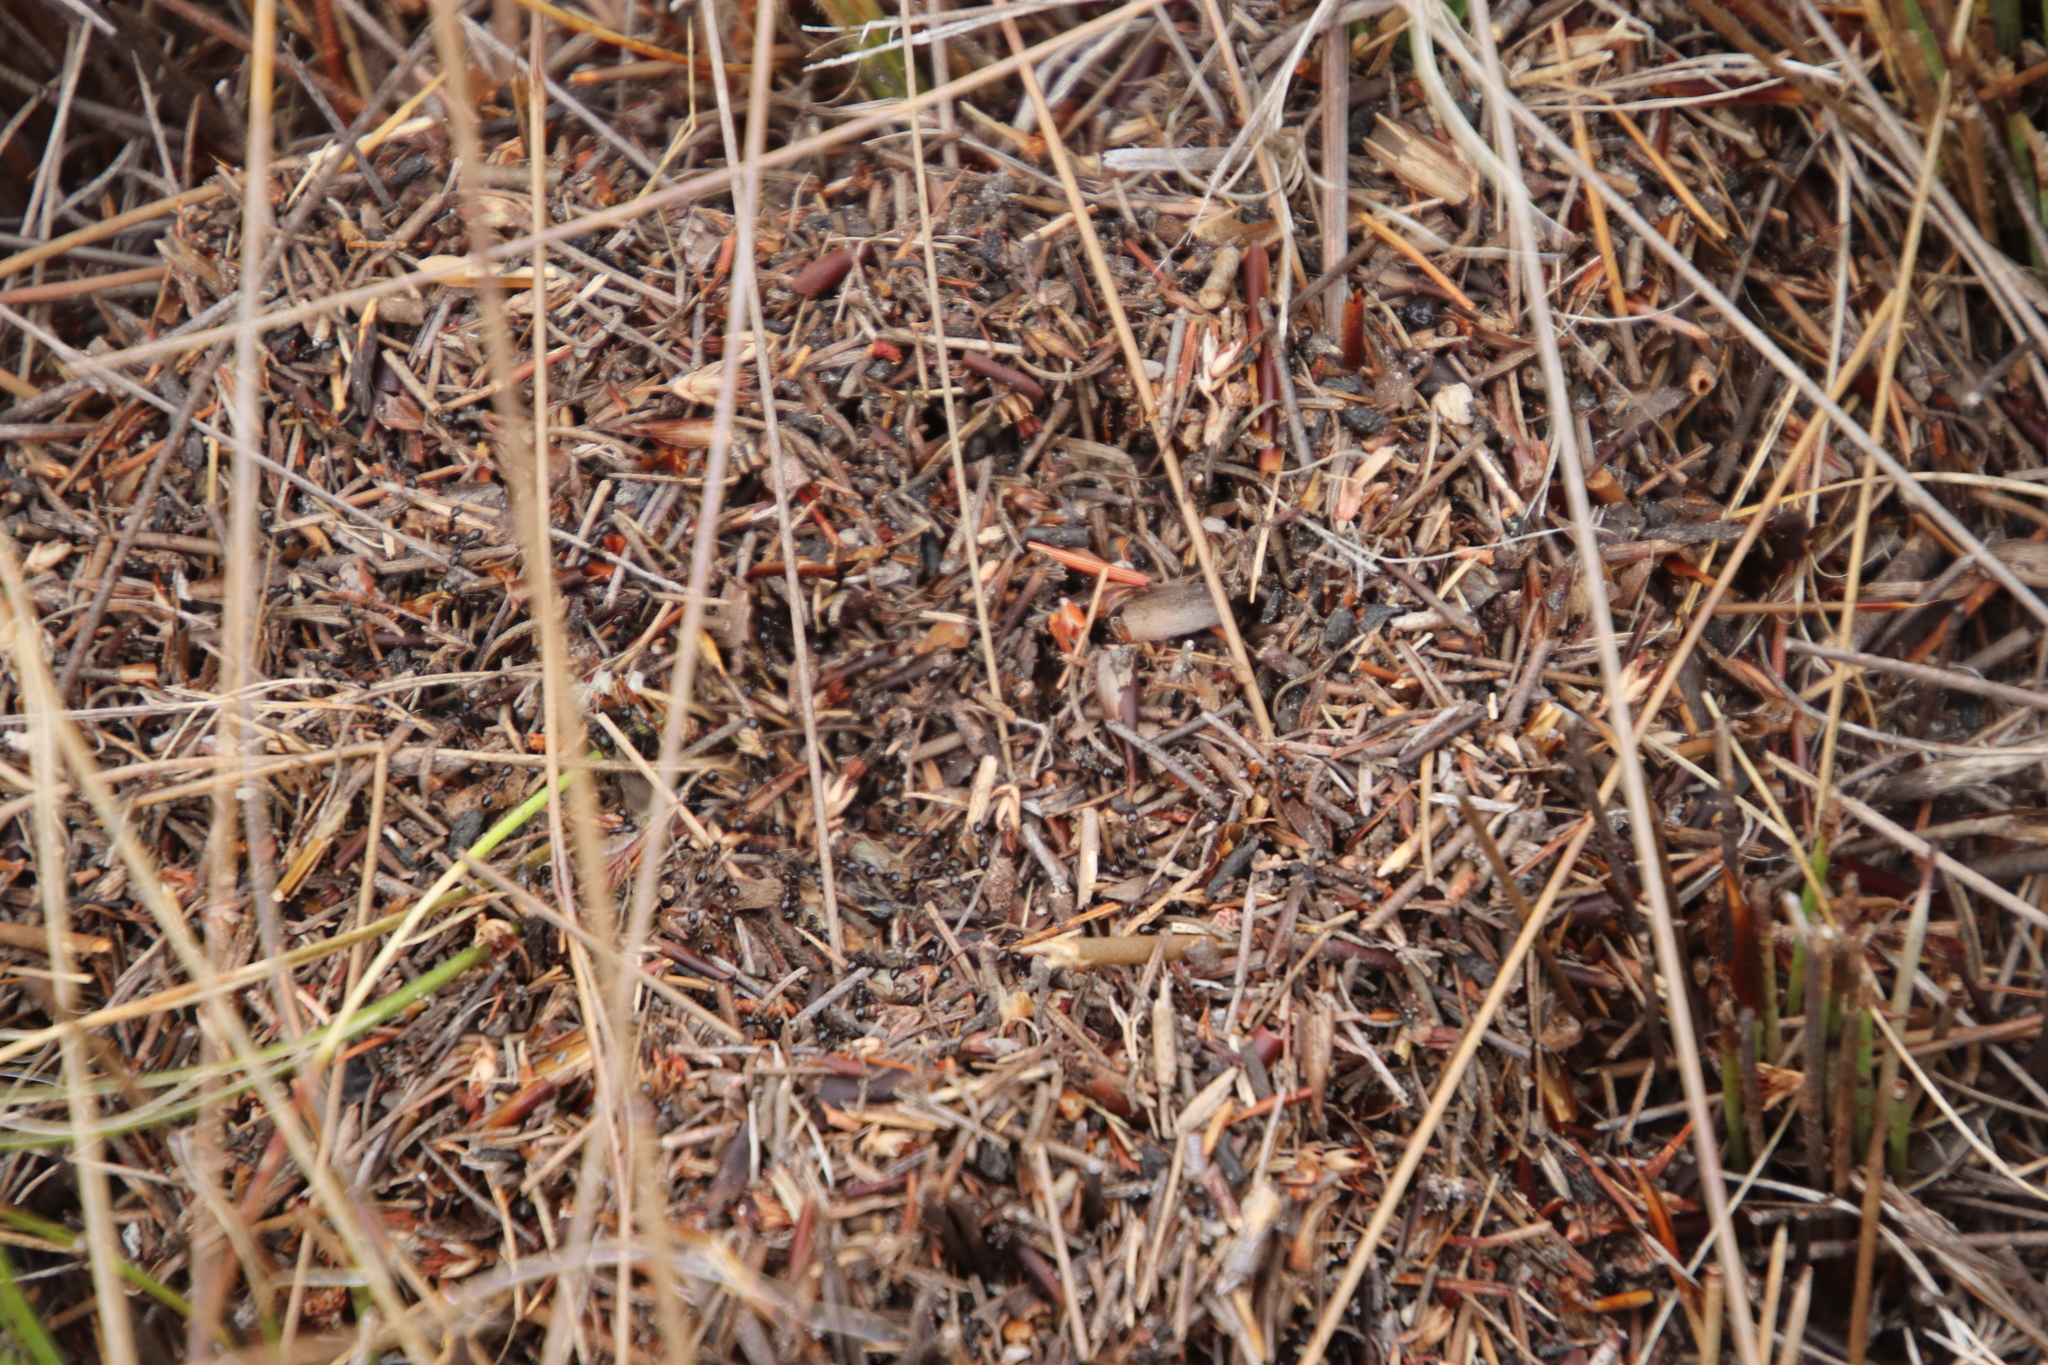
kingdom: Animalia
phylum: Arthropoda
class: Insecta
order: Hymenoptera
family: Formicidae
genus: Monomorium
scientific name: Monomorium fridae
